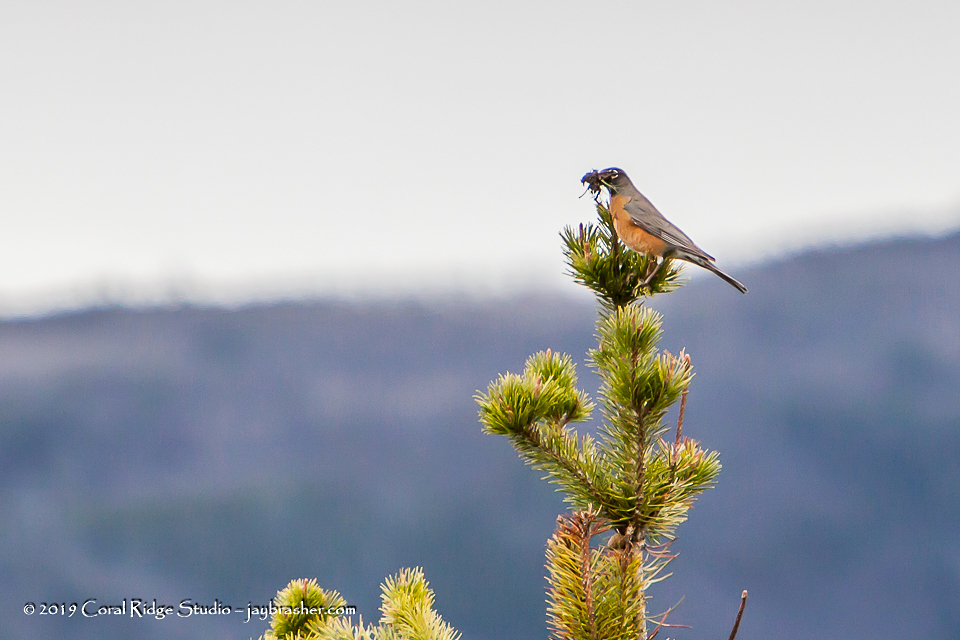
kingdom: Animalia
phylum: Chordata
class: Aves
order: Passeriformes
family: Turdidae
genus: Turdus
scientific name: Turdus migratorius
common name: American robin
